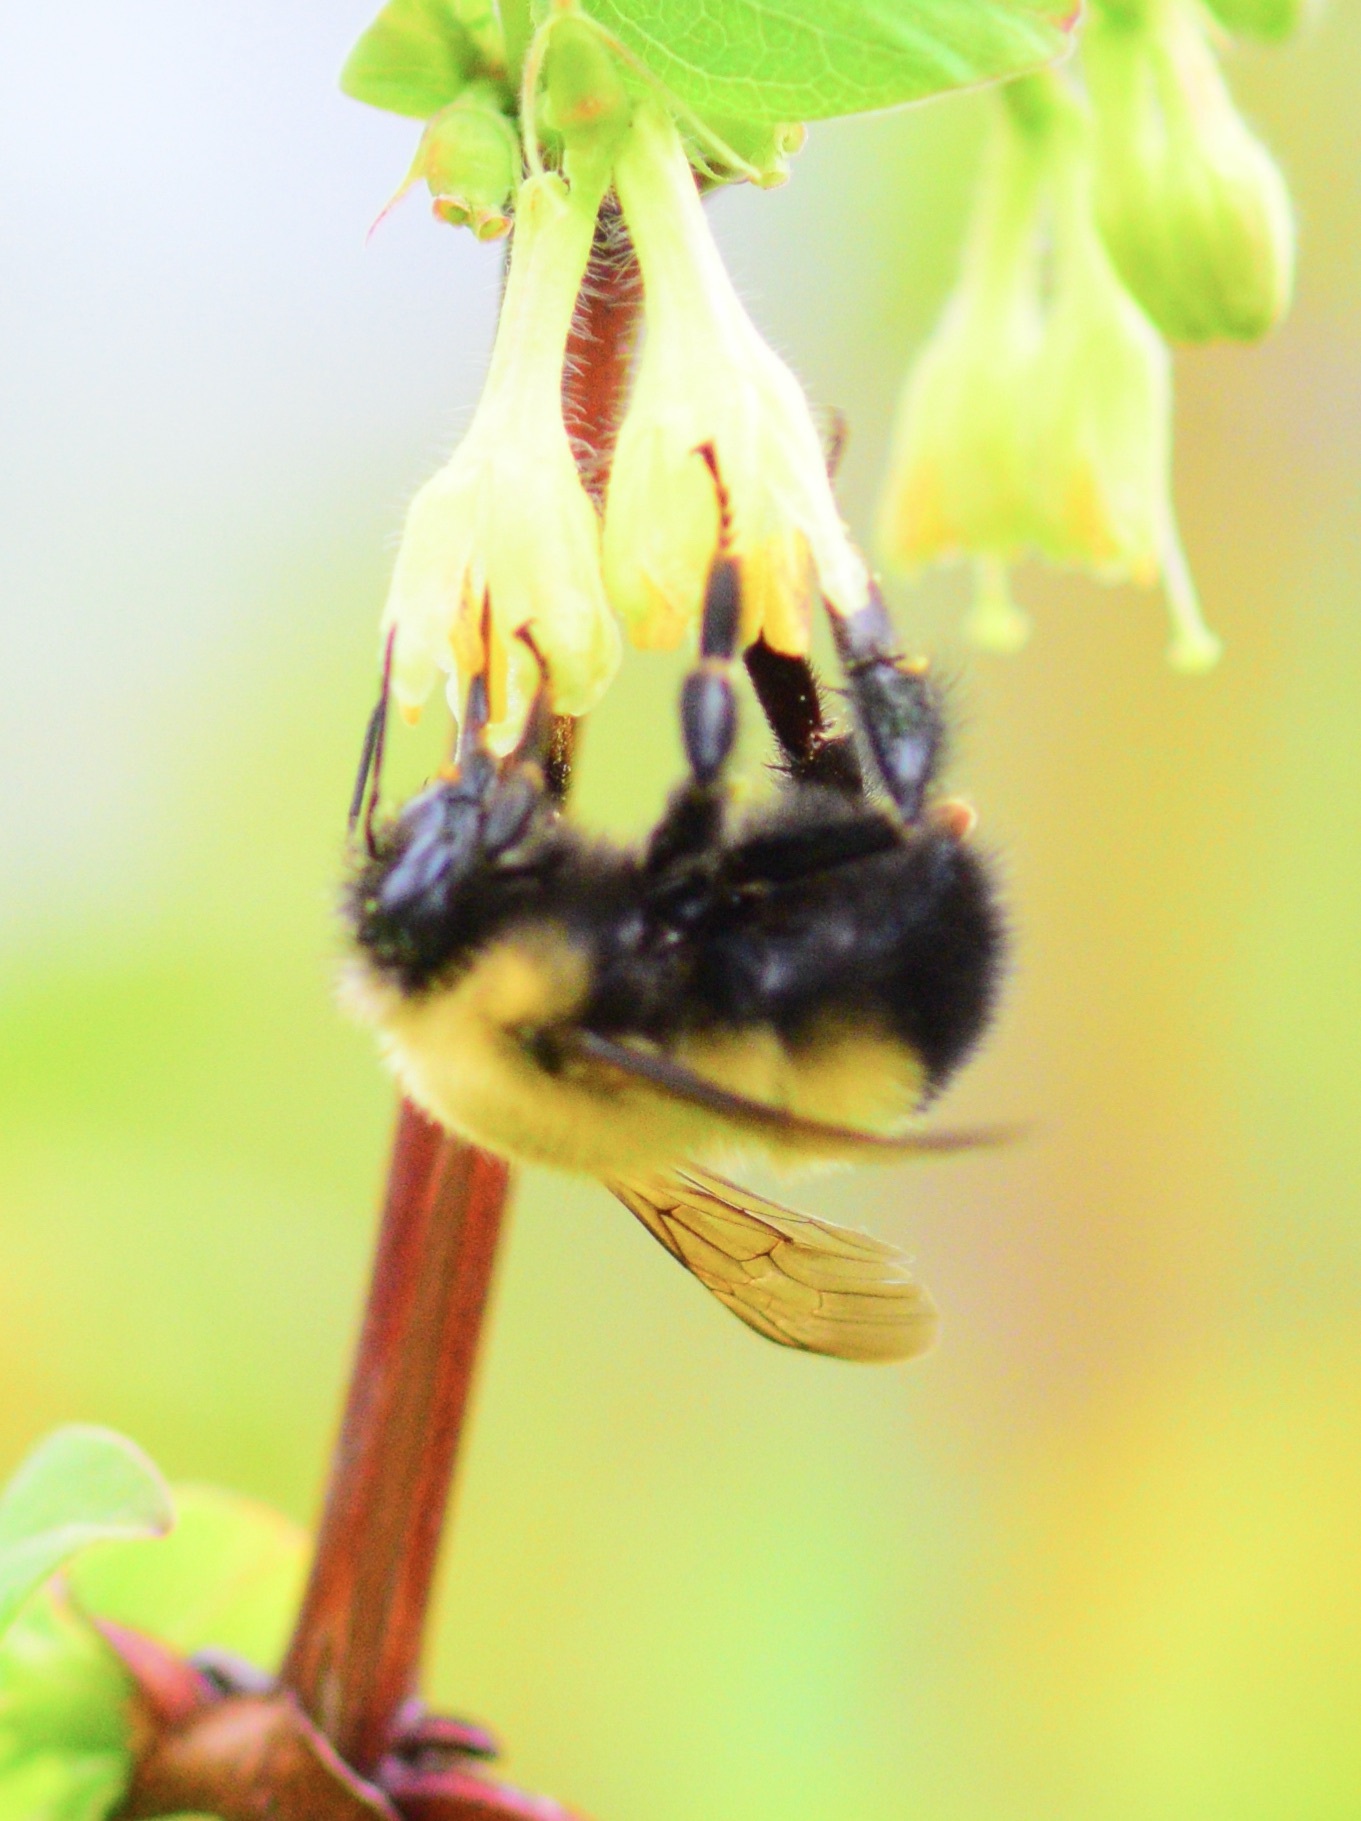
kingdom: Animalia
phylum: Arthropoda
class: Insecta
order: Hymenoptera
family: Apidae
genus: Bombus
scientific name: Bombus perplexus
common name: Confusing bumble bee
